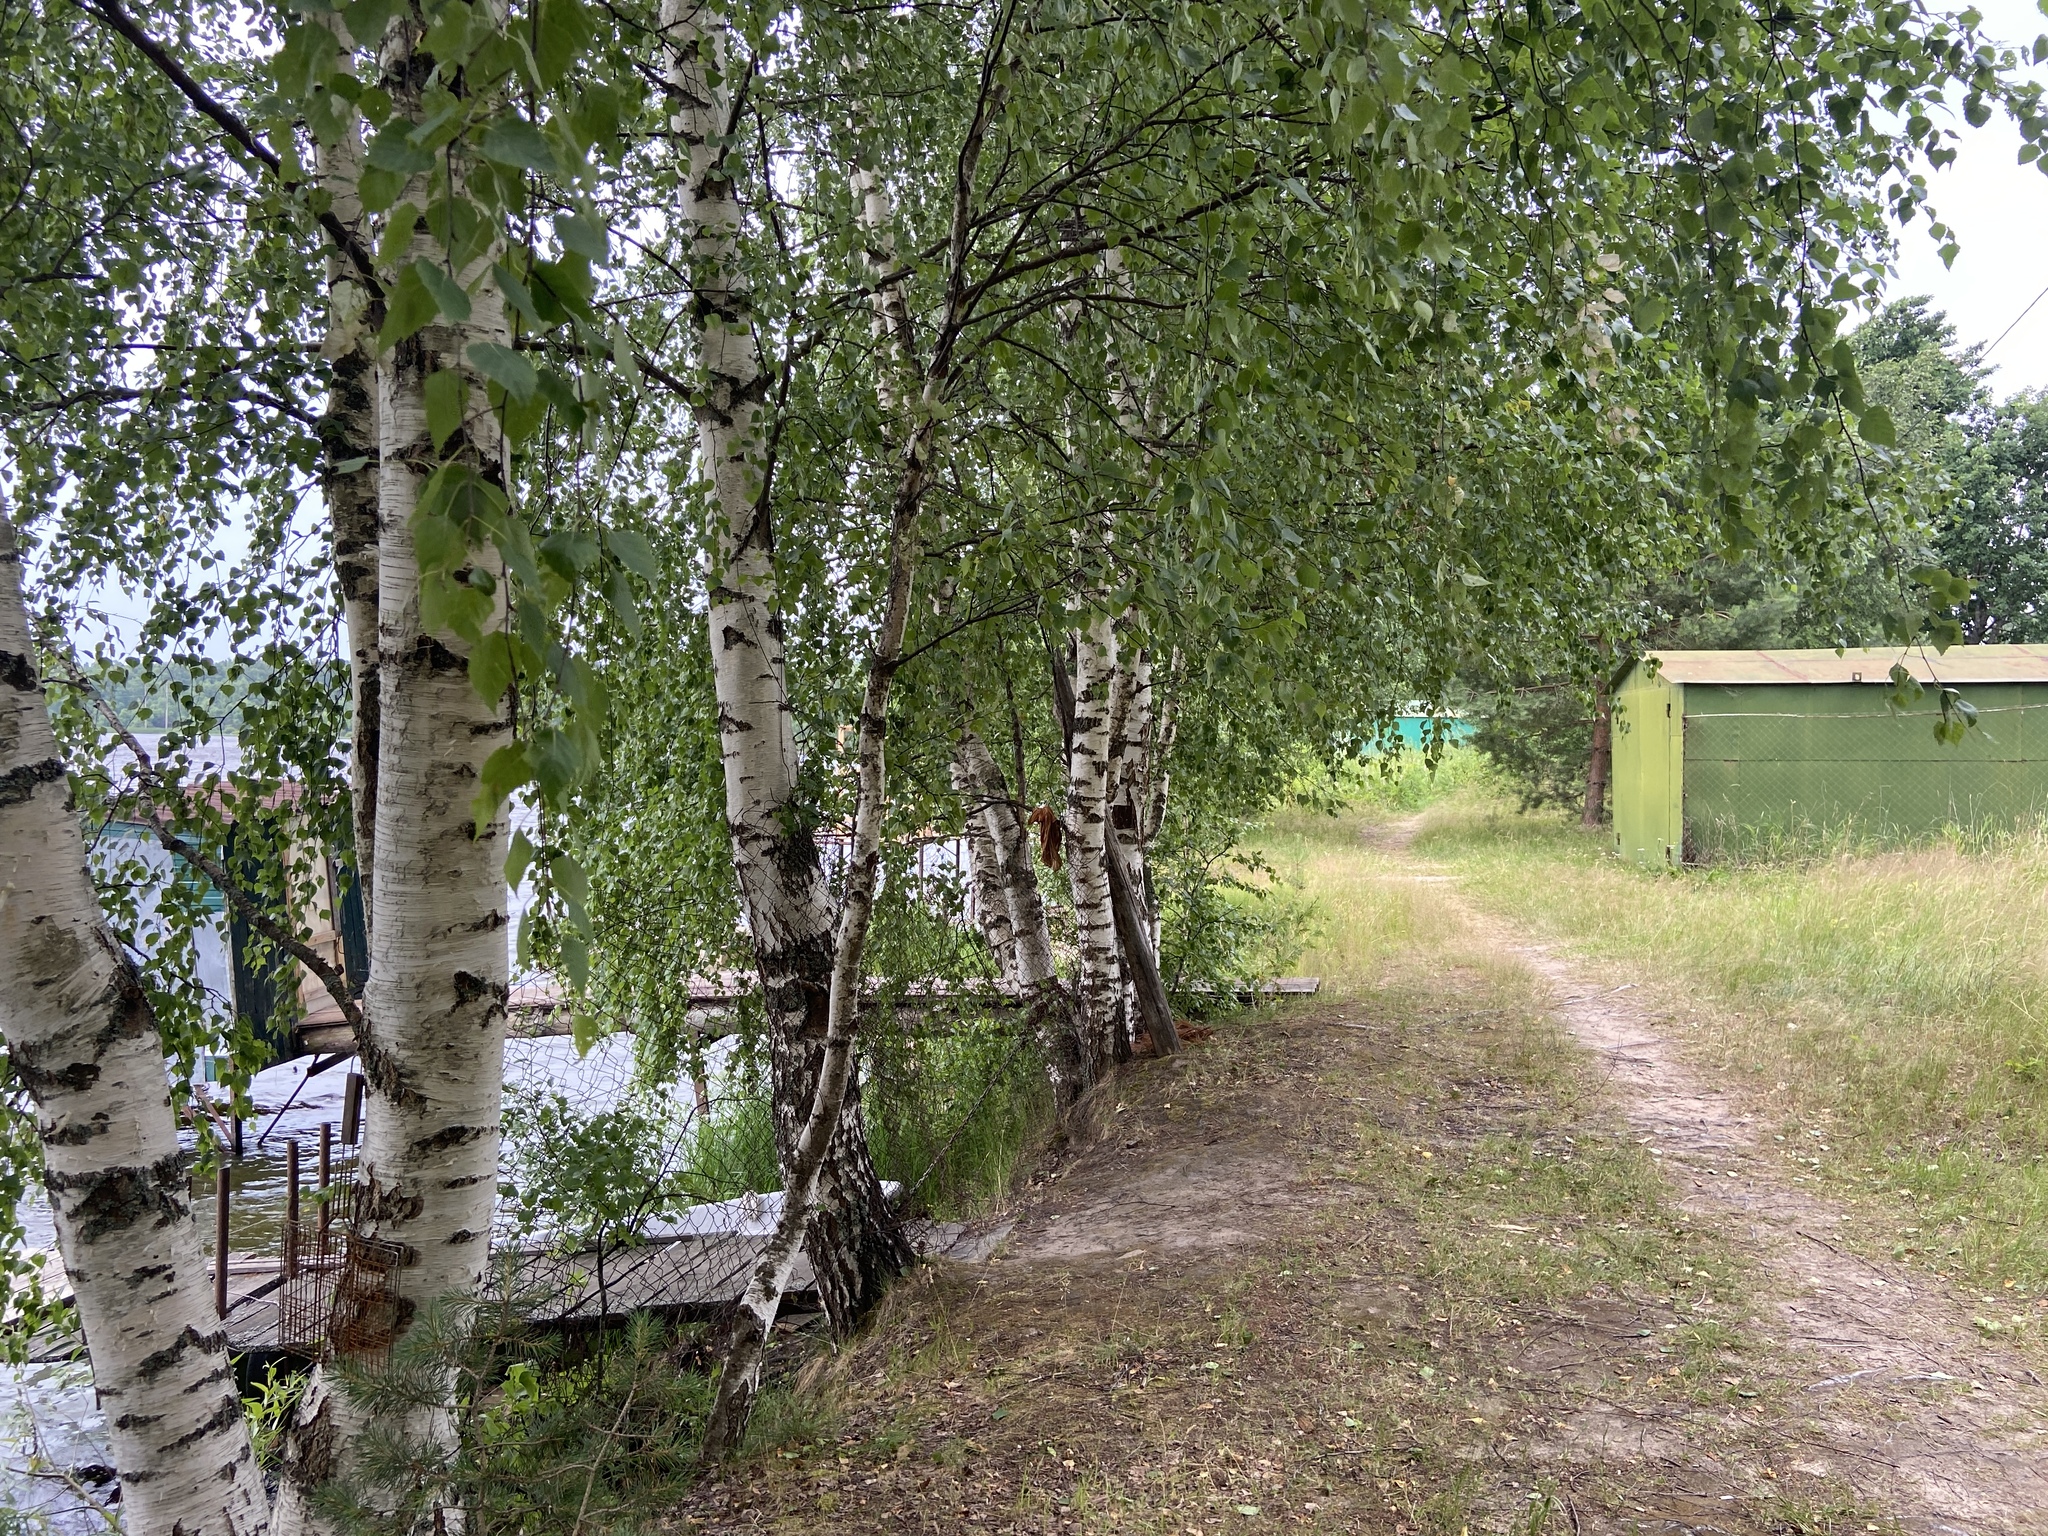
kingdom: Plantae
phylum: Tracheophyta
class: Magnoliopsida
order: Fagales
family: Betulaceae
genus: Betula
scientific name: Betula pendula
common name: Silver birch
